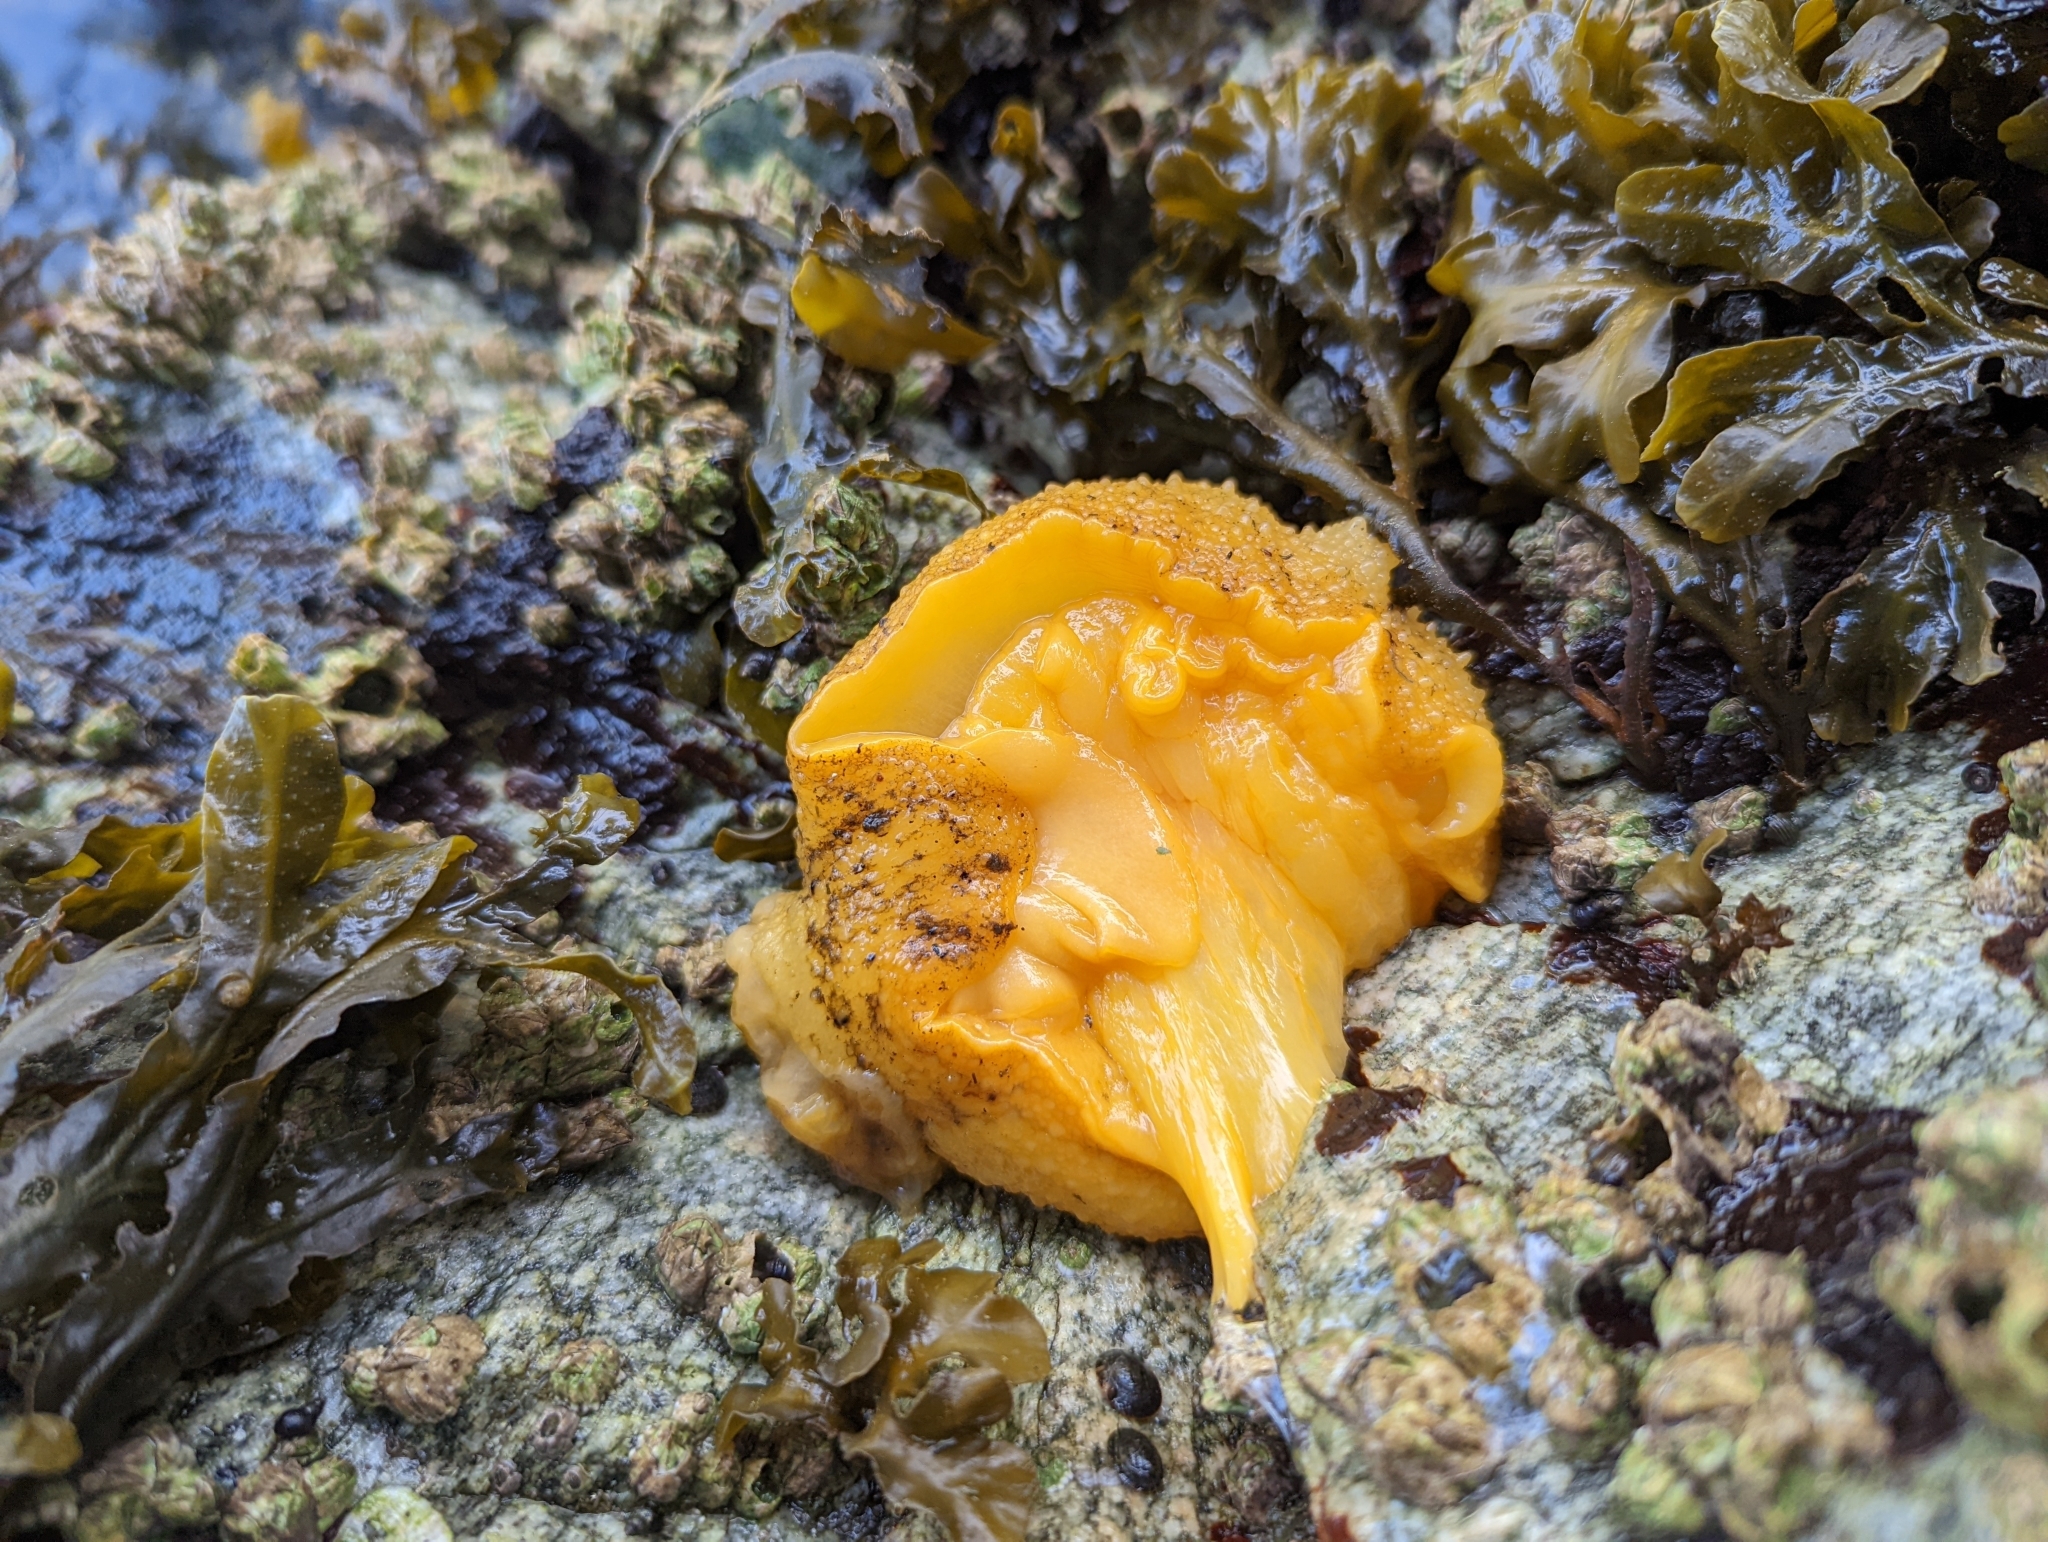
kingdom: Animalia
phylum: Mollusca
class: Gastropoda
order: Nudibranchia
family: Dorididae
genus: Doris
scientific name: Doris montereyensis
